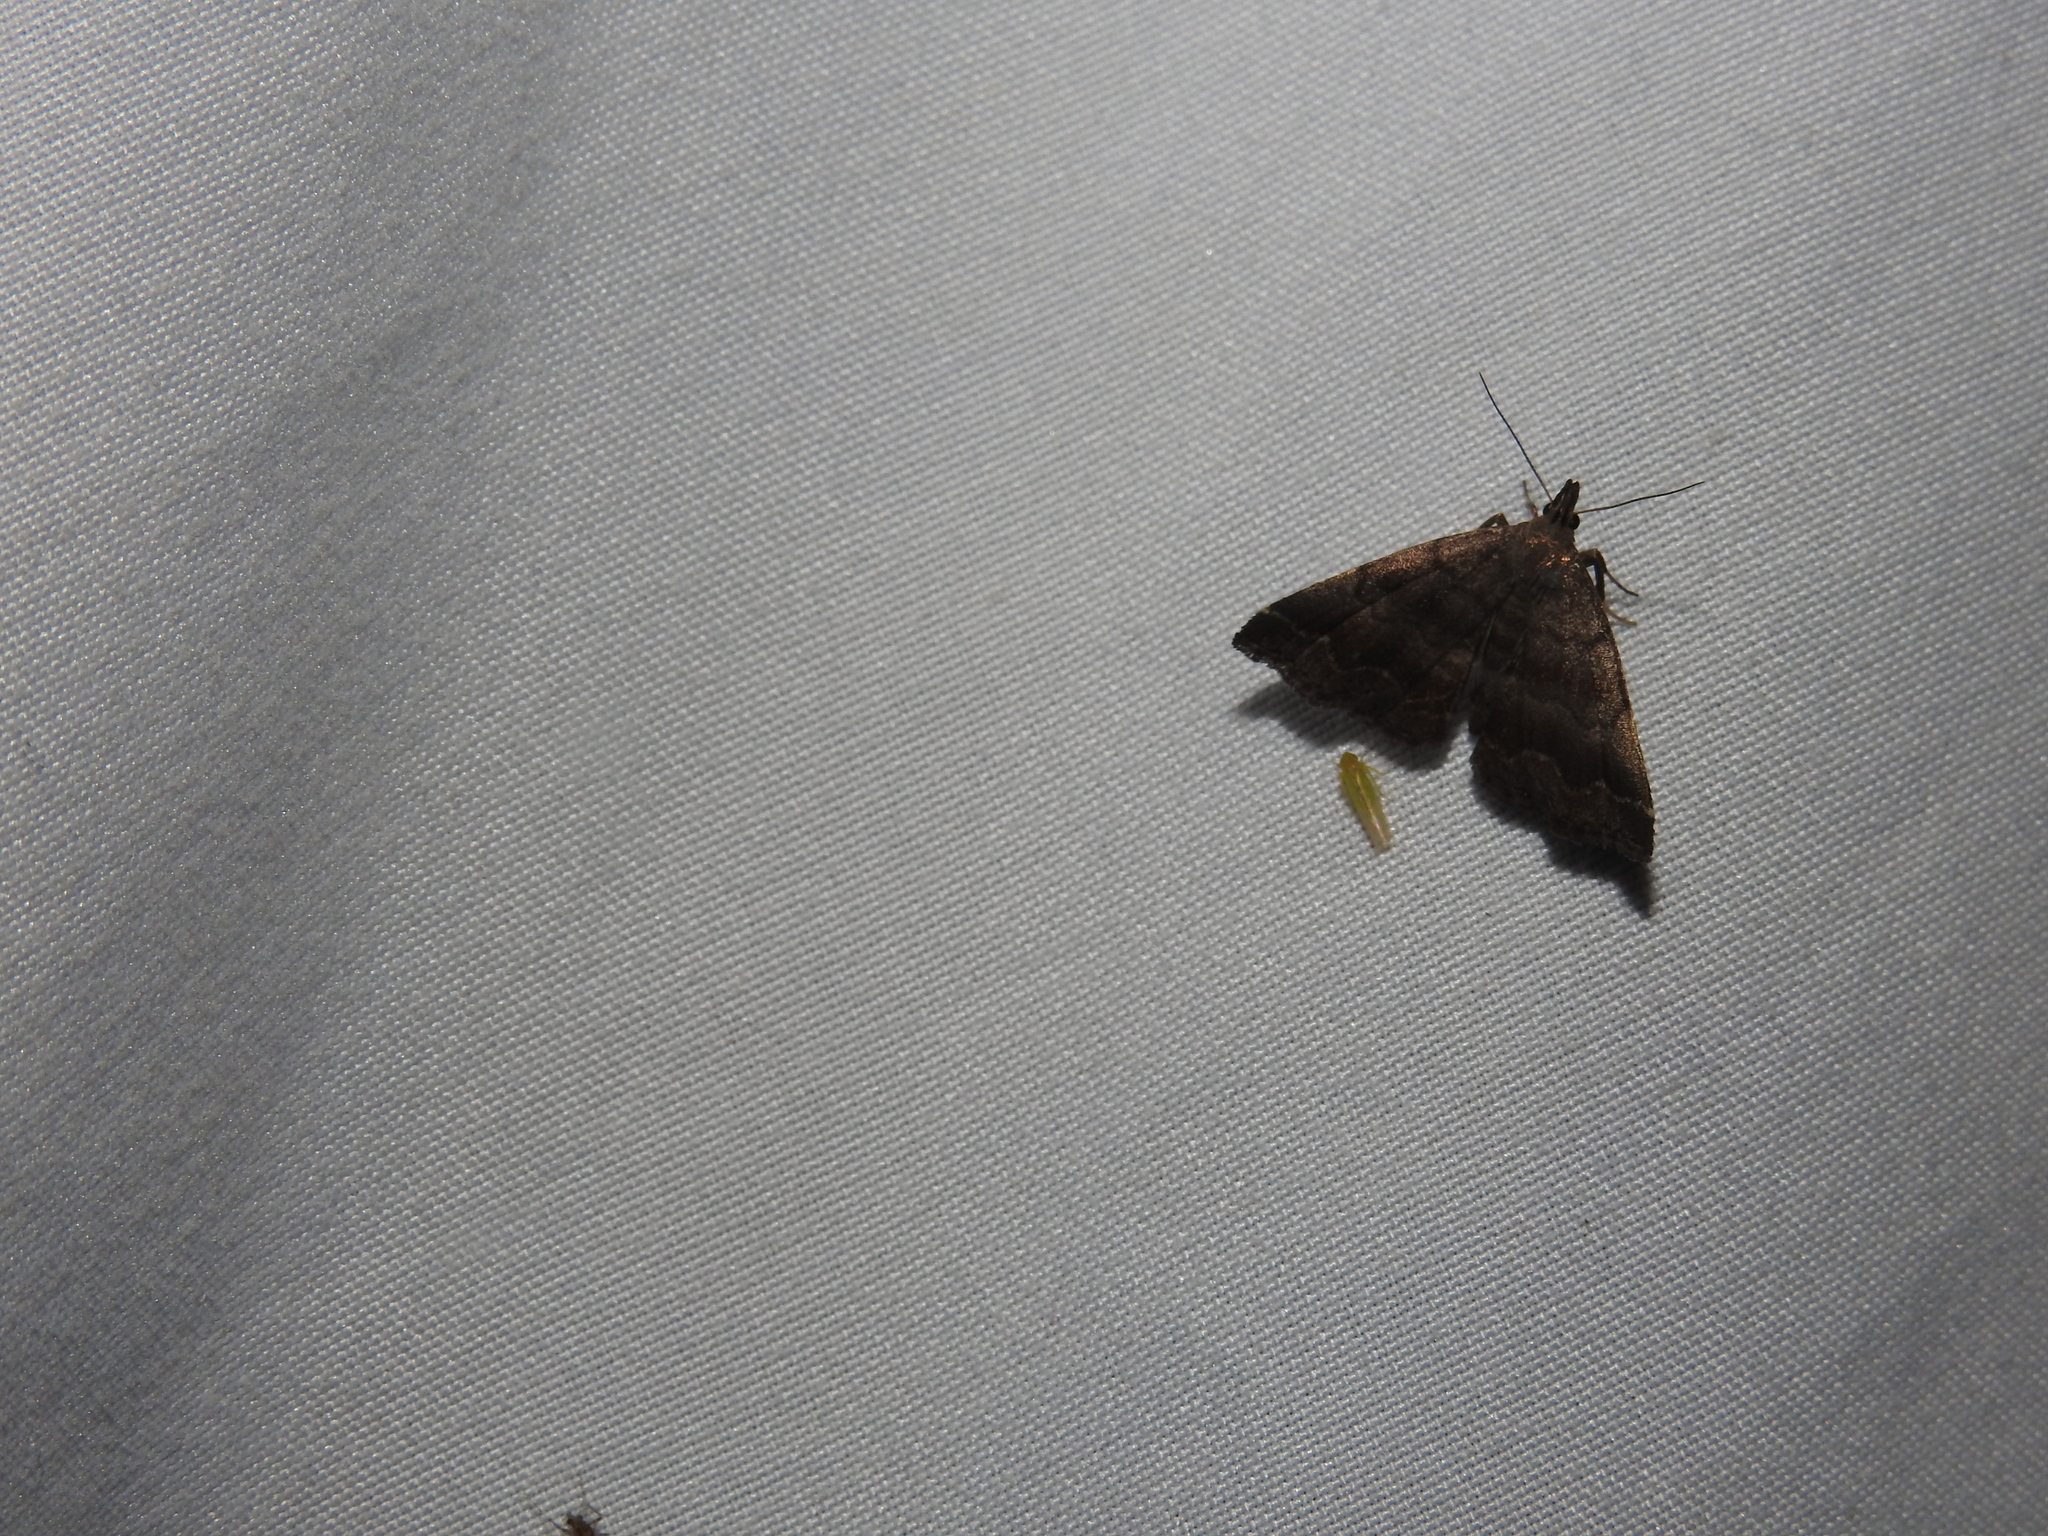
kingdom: Animalia
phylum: Arthropoda
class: Insecta
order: Lepidoptera
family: Erebidae
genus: Phalaenostola
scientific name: Phalaenostola larentioides
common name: Black-banded owlet
